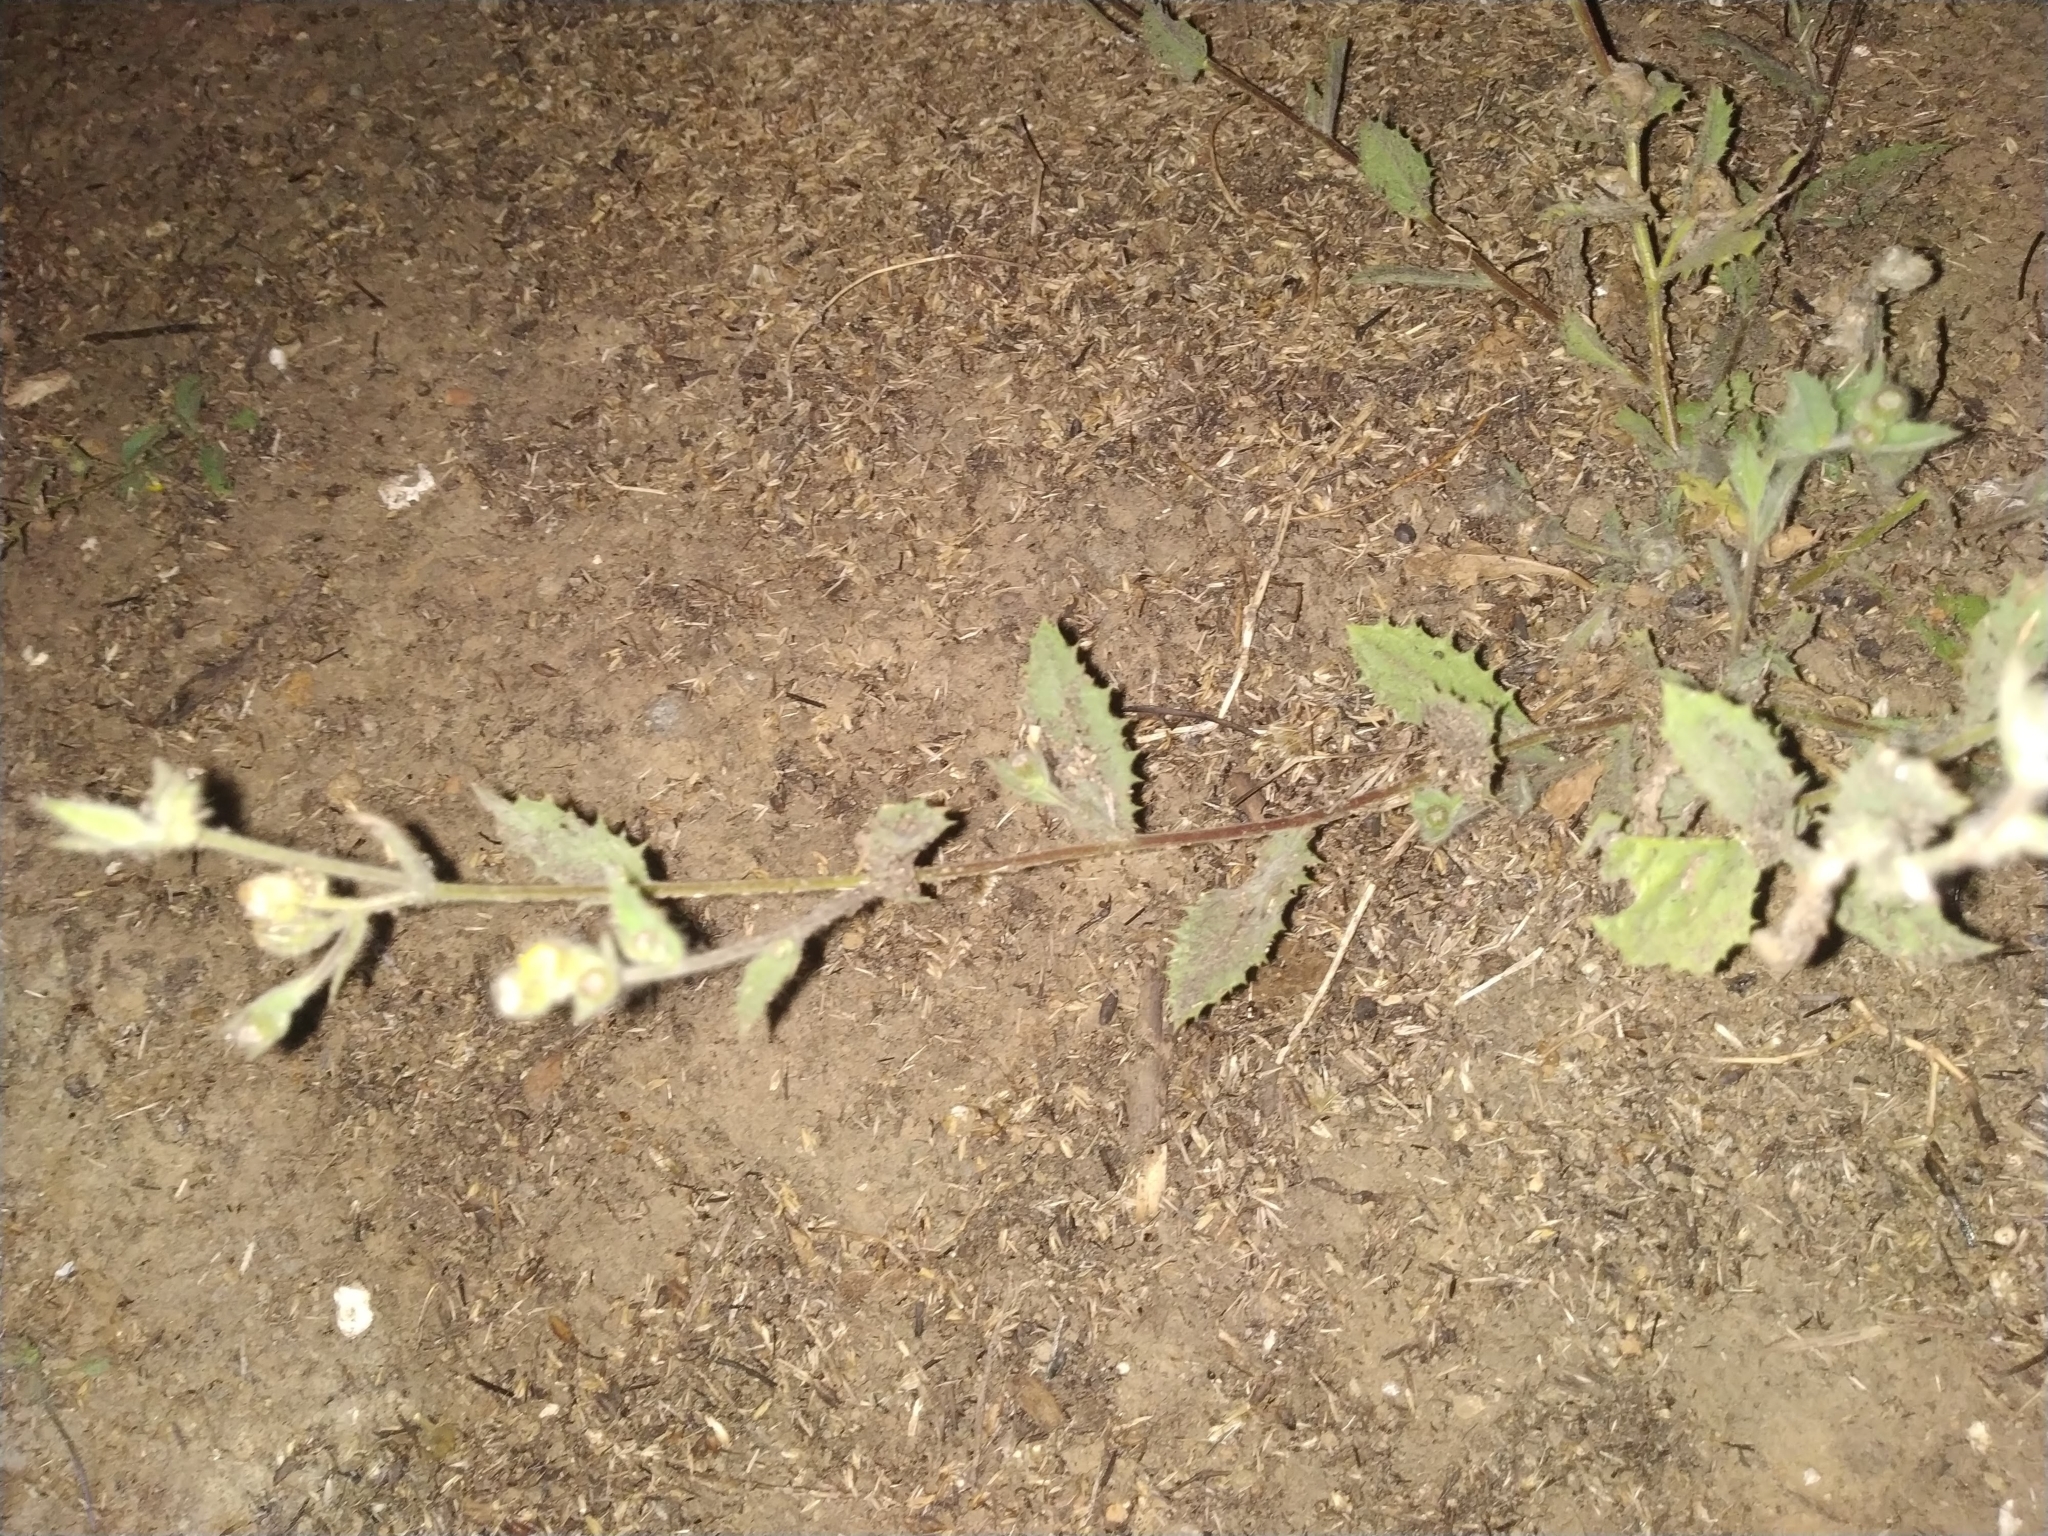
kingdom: Plantae
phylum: Tracheophyta
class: Magnoliopsida
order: Asterales
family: Asteraceae
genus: Blumea
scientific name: Blumea oxyodonta
